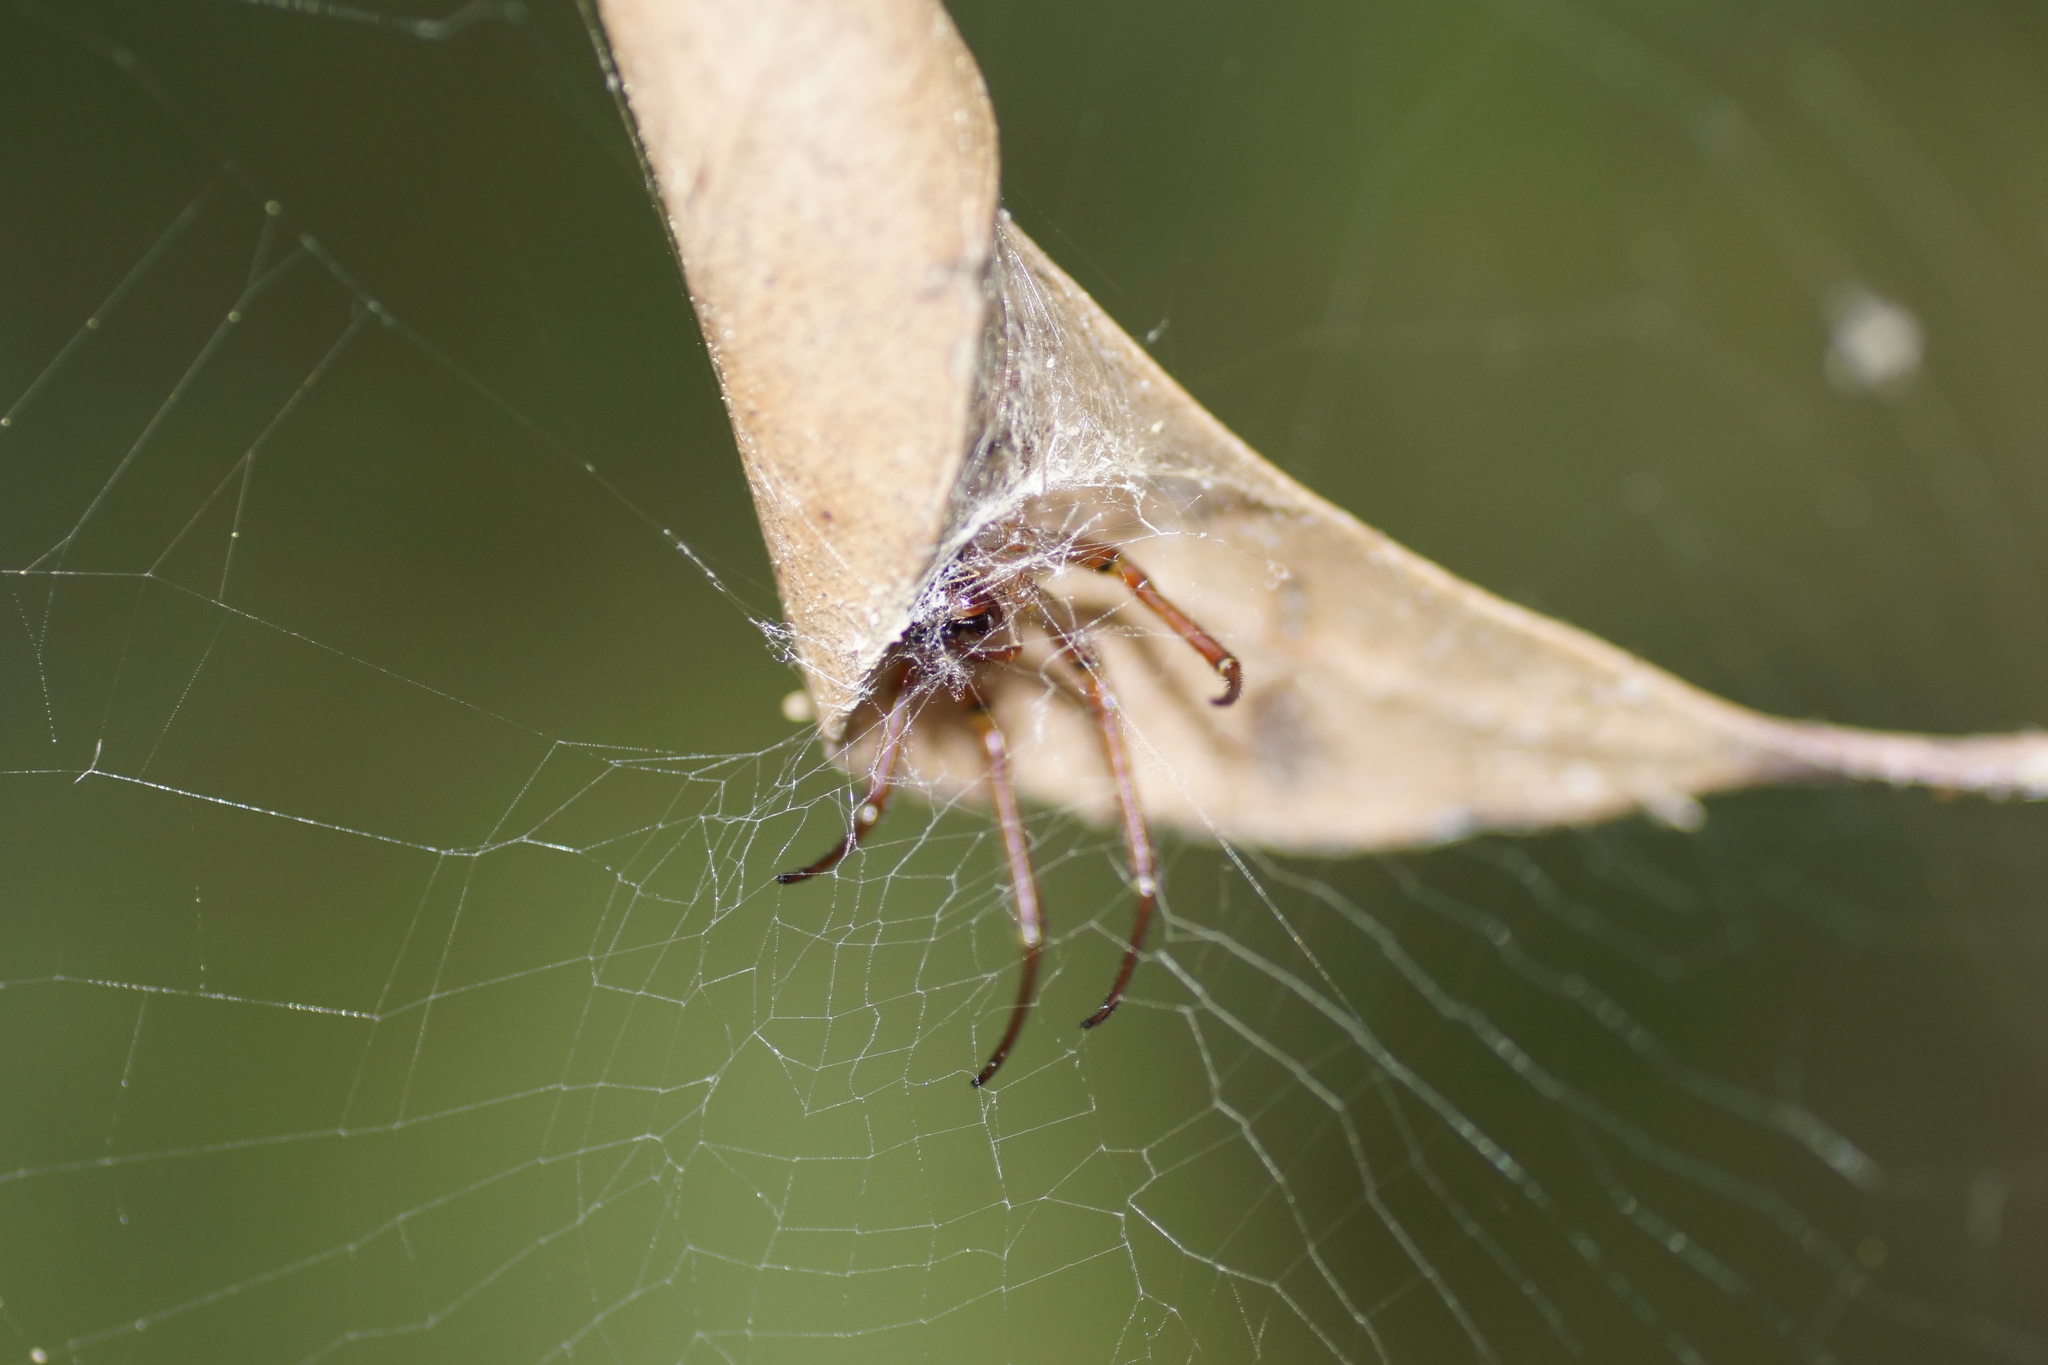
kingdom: Animalia
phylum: Arthropoda
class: Arachnida
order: Araneae
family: Araneidae
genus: Phonognatha
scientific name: Phonognatha graeffei
